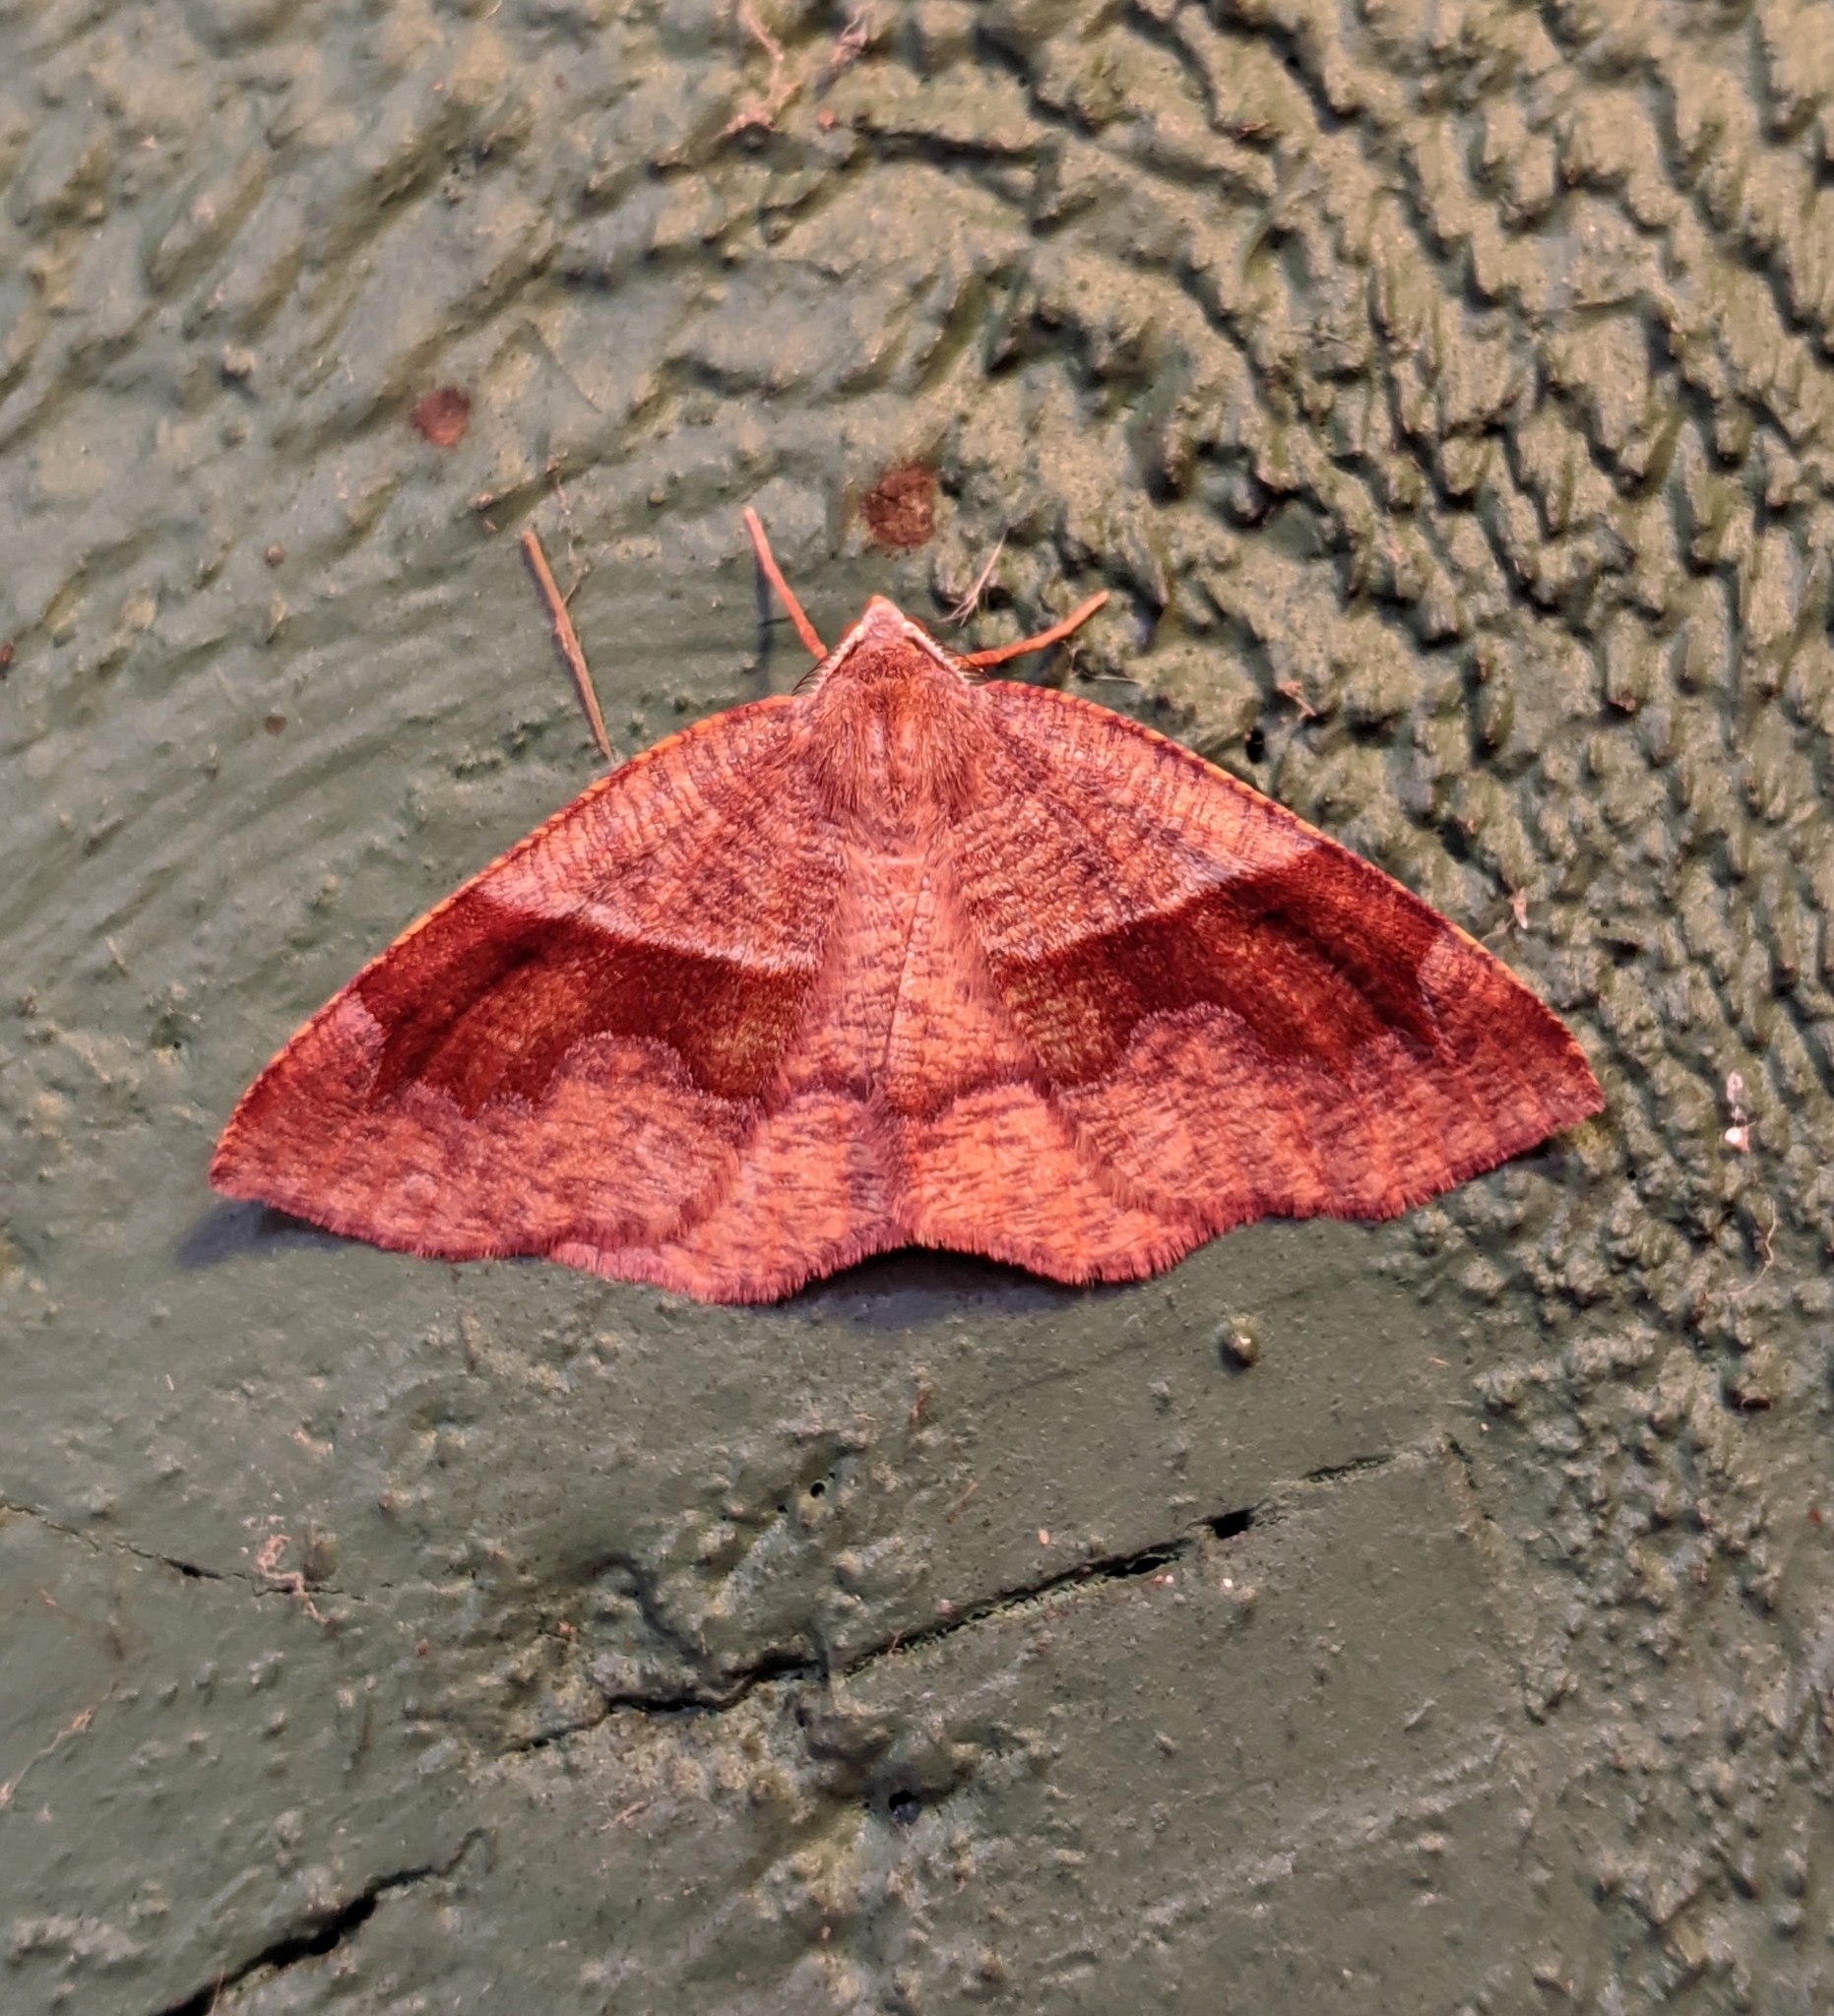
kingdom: Animalia
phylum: Arthropoda
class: Insecta
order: Lepidoptera
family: Geometridae
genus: Plagodis
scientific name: Plagodis pulveraria
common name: Barred umber
